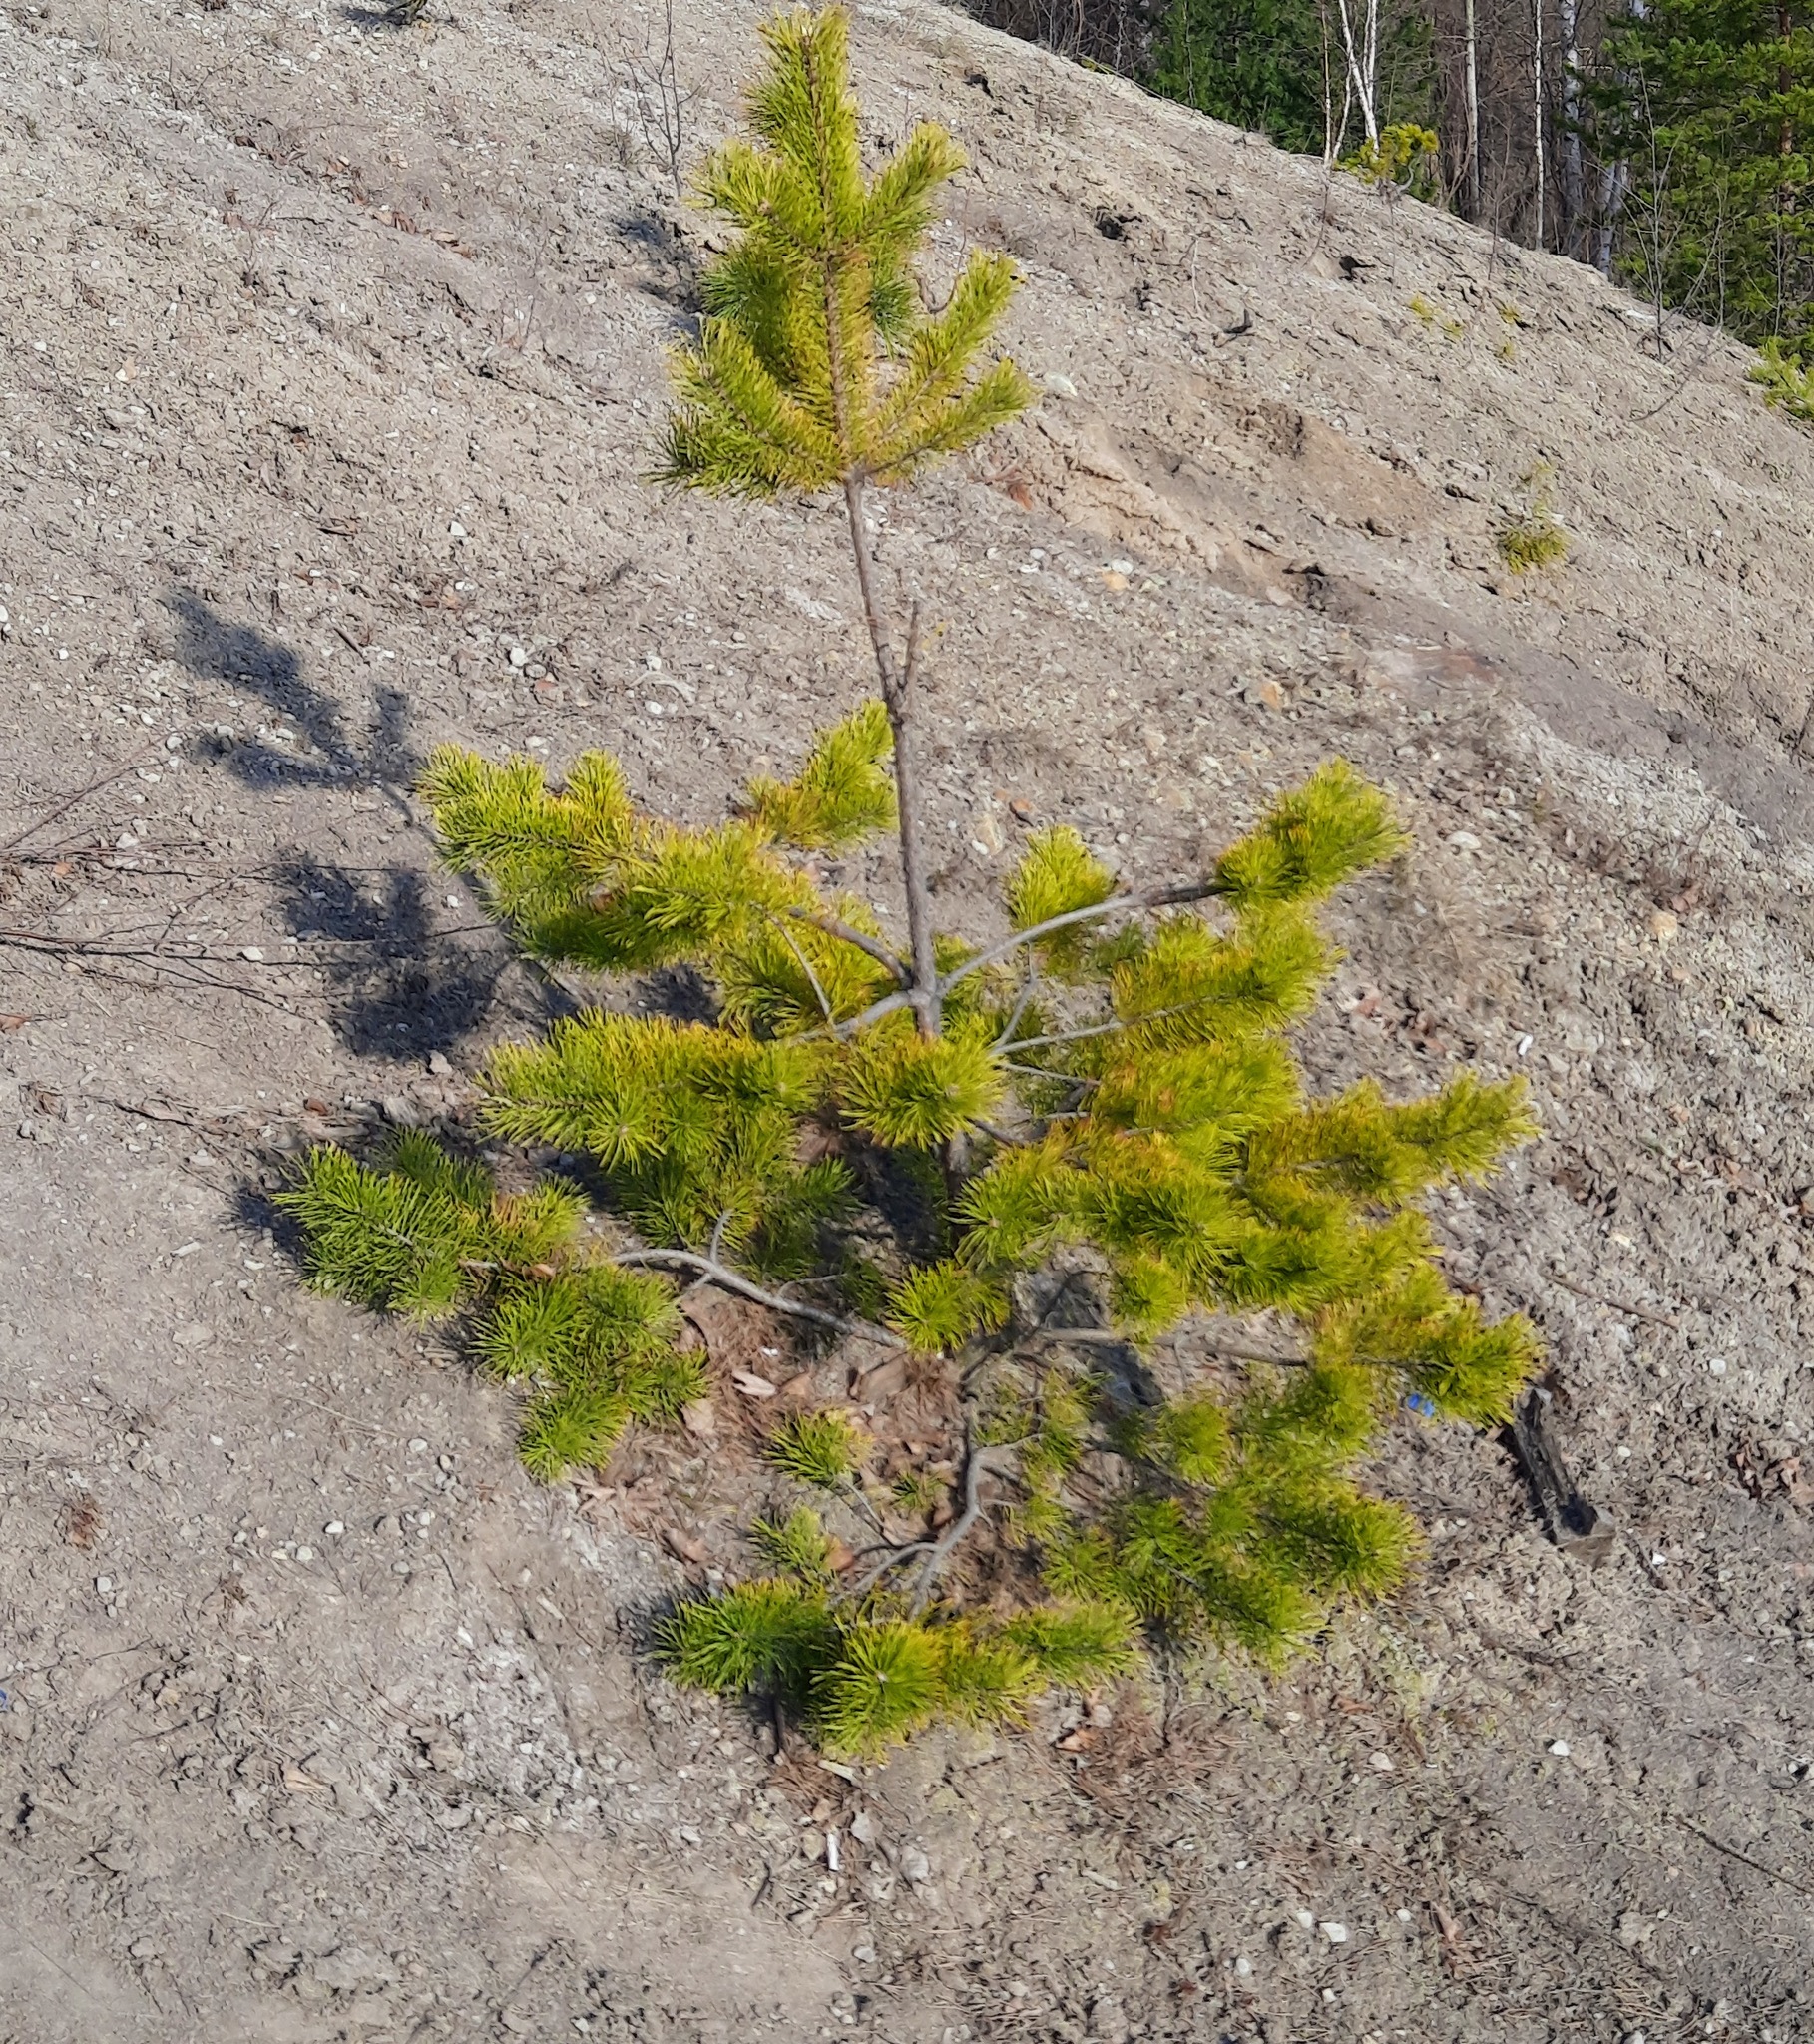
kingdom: Plantae
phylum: Tracheophyta
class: Pinopsida
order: Pinales
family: Pinaceae
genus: Pinus
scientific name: Pinus sylvestris
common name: Scots pine
